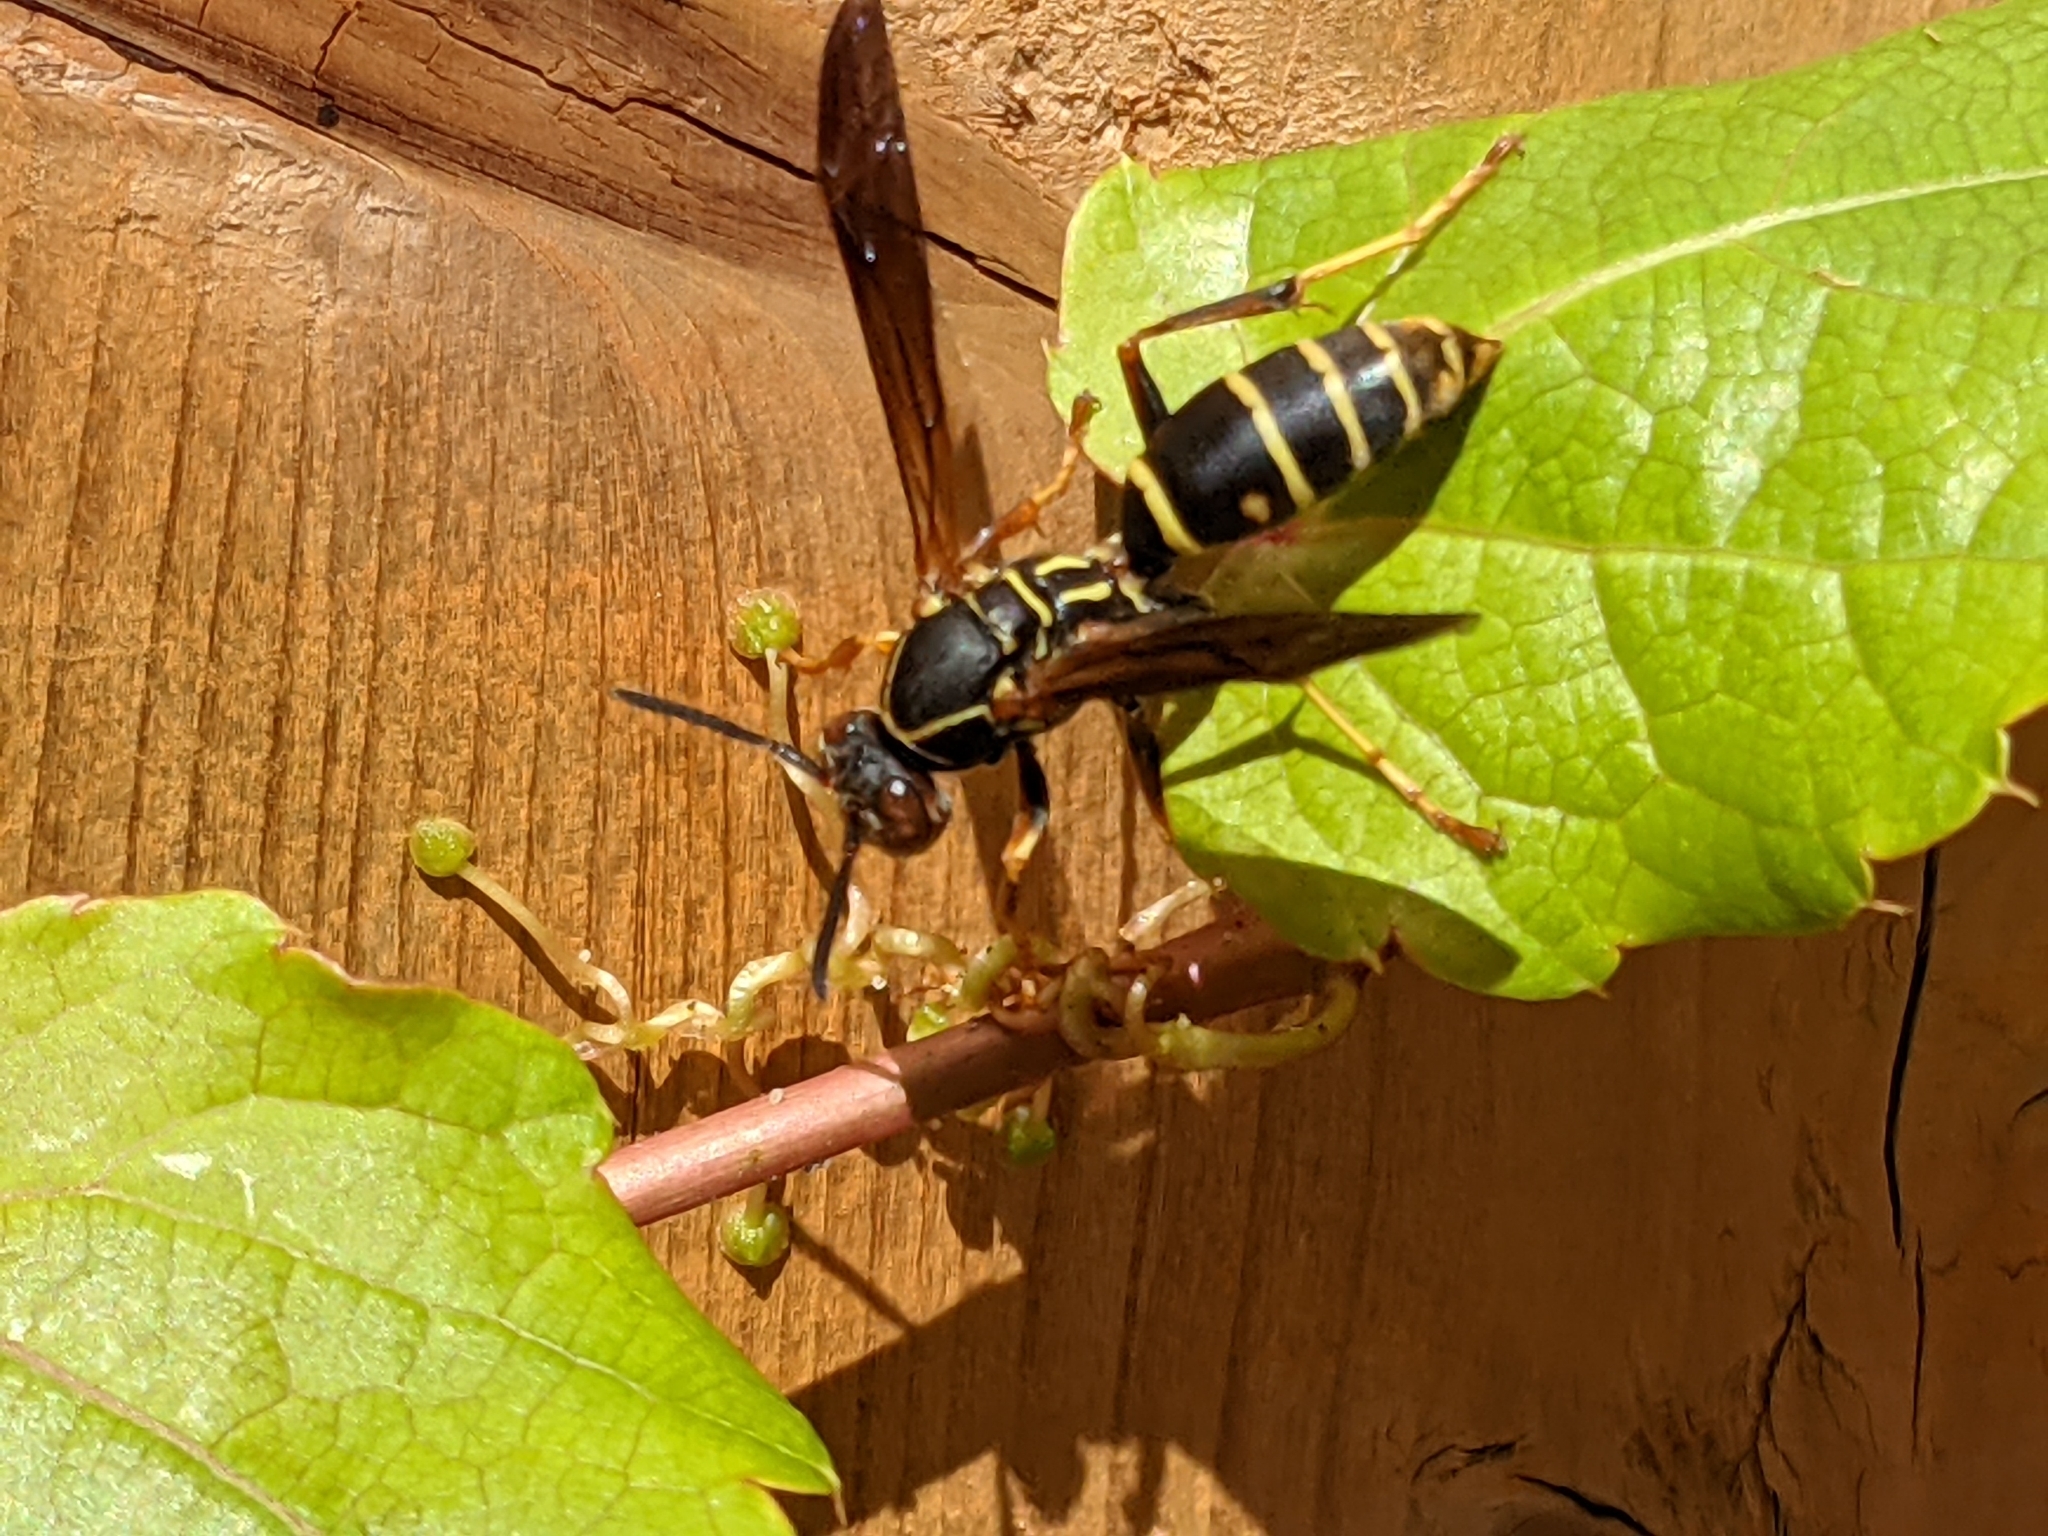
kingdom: Animalia
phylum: Arthropoda
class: Insecta
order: Hymenoptera
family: Eumenidae
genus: Polistes
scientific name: Polistes fuscatus
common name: Dark paper wasp
